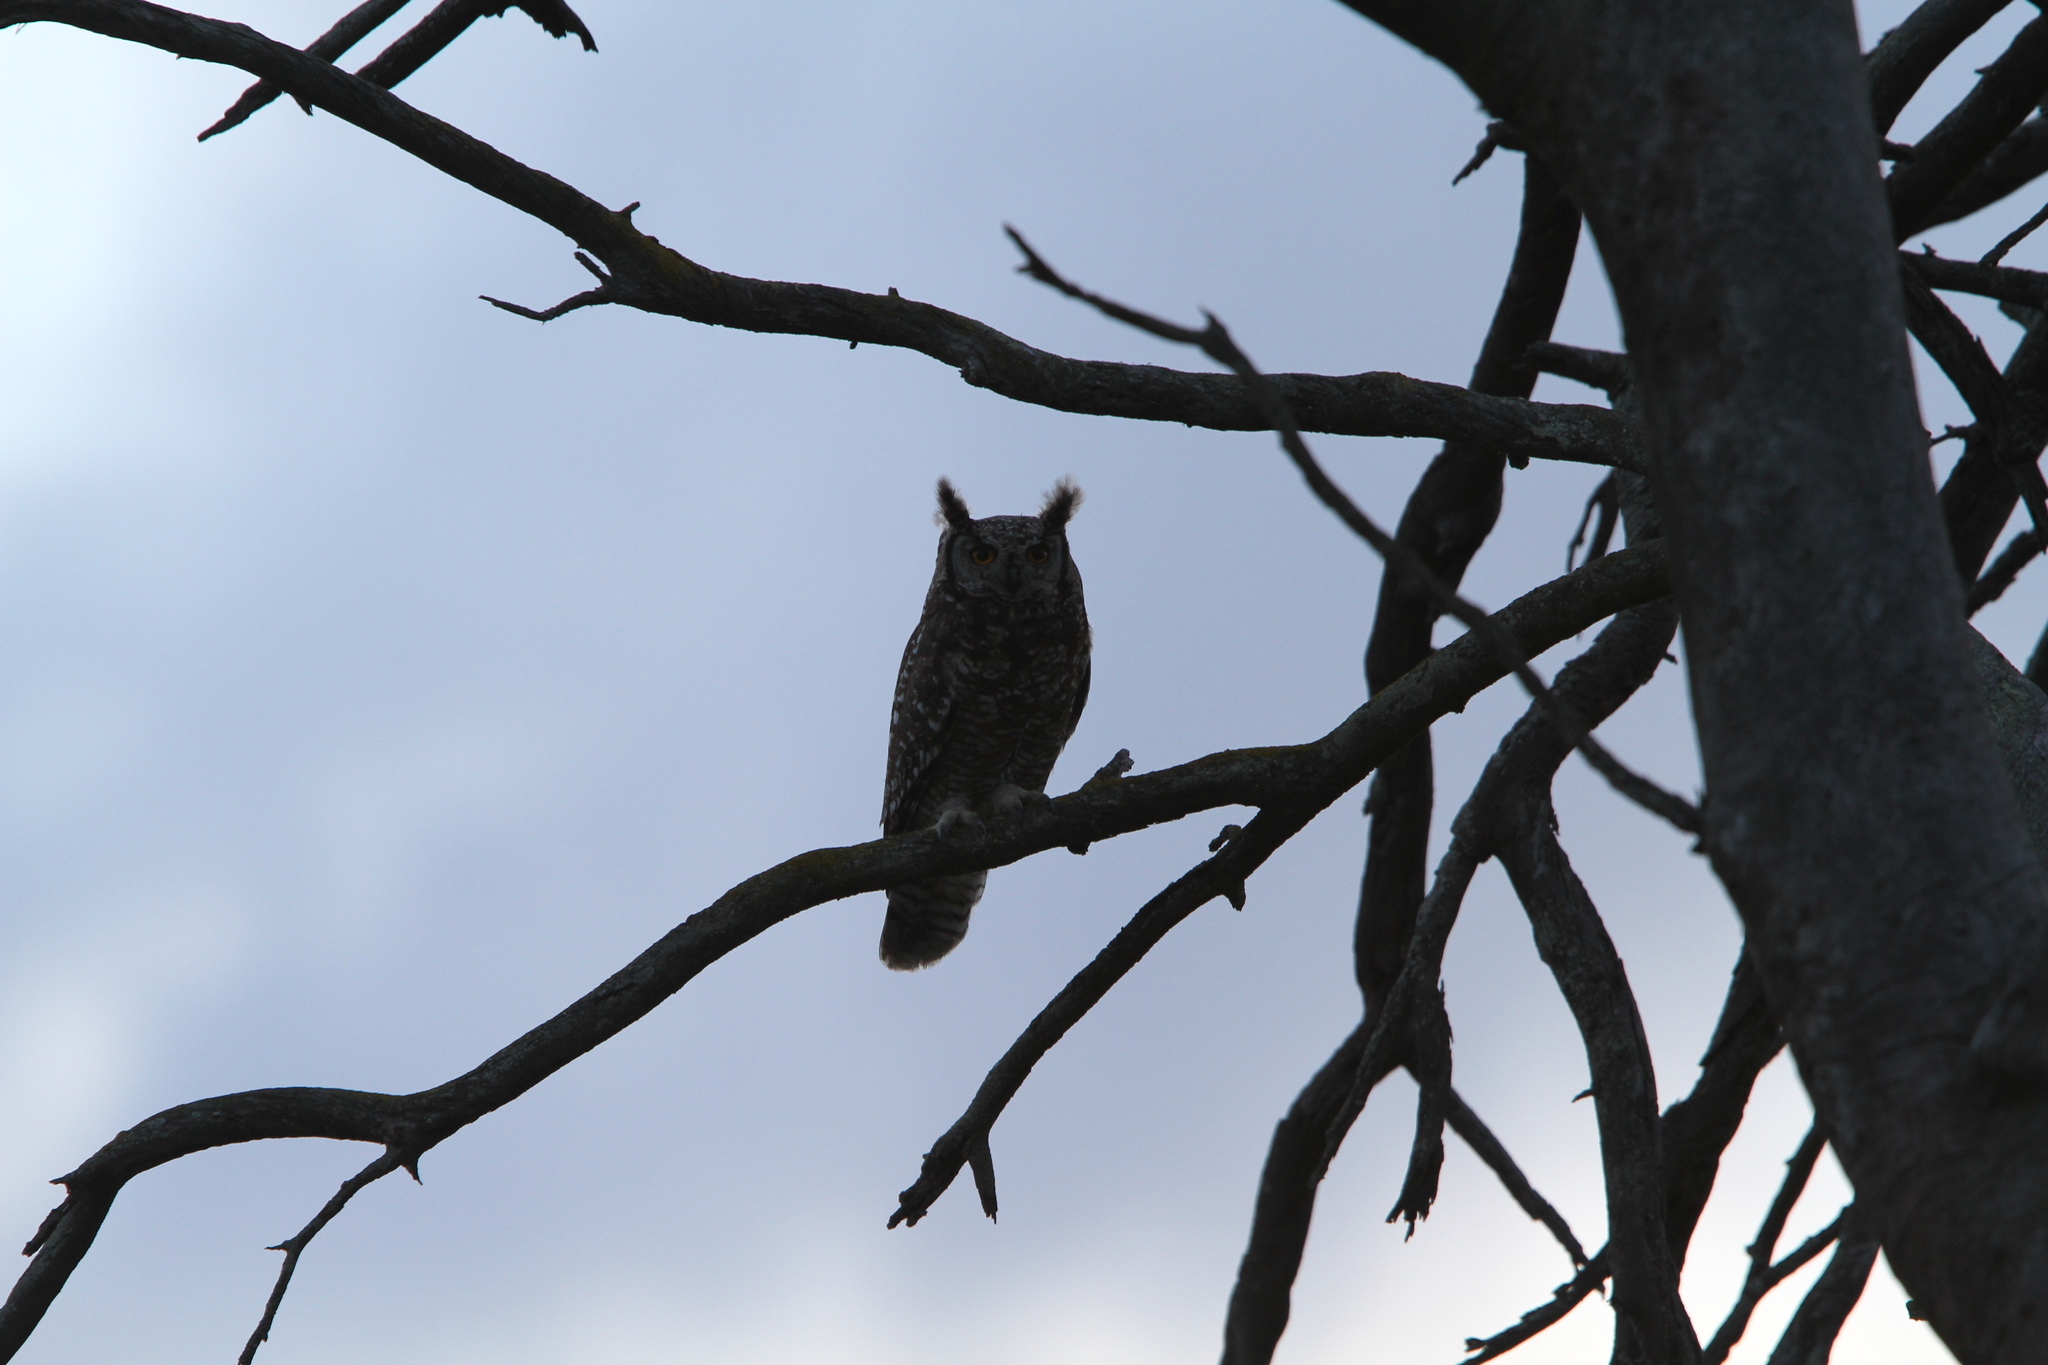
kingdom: Animalia
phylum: Chordata
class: Aves
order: Strigiformes
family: Strigidae
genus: Bubo
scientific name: Bubo africanus
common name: Spotted eagle-owl
